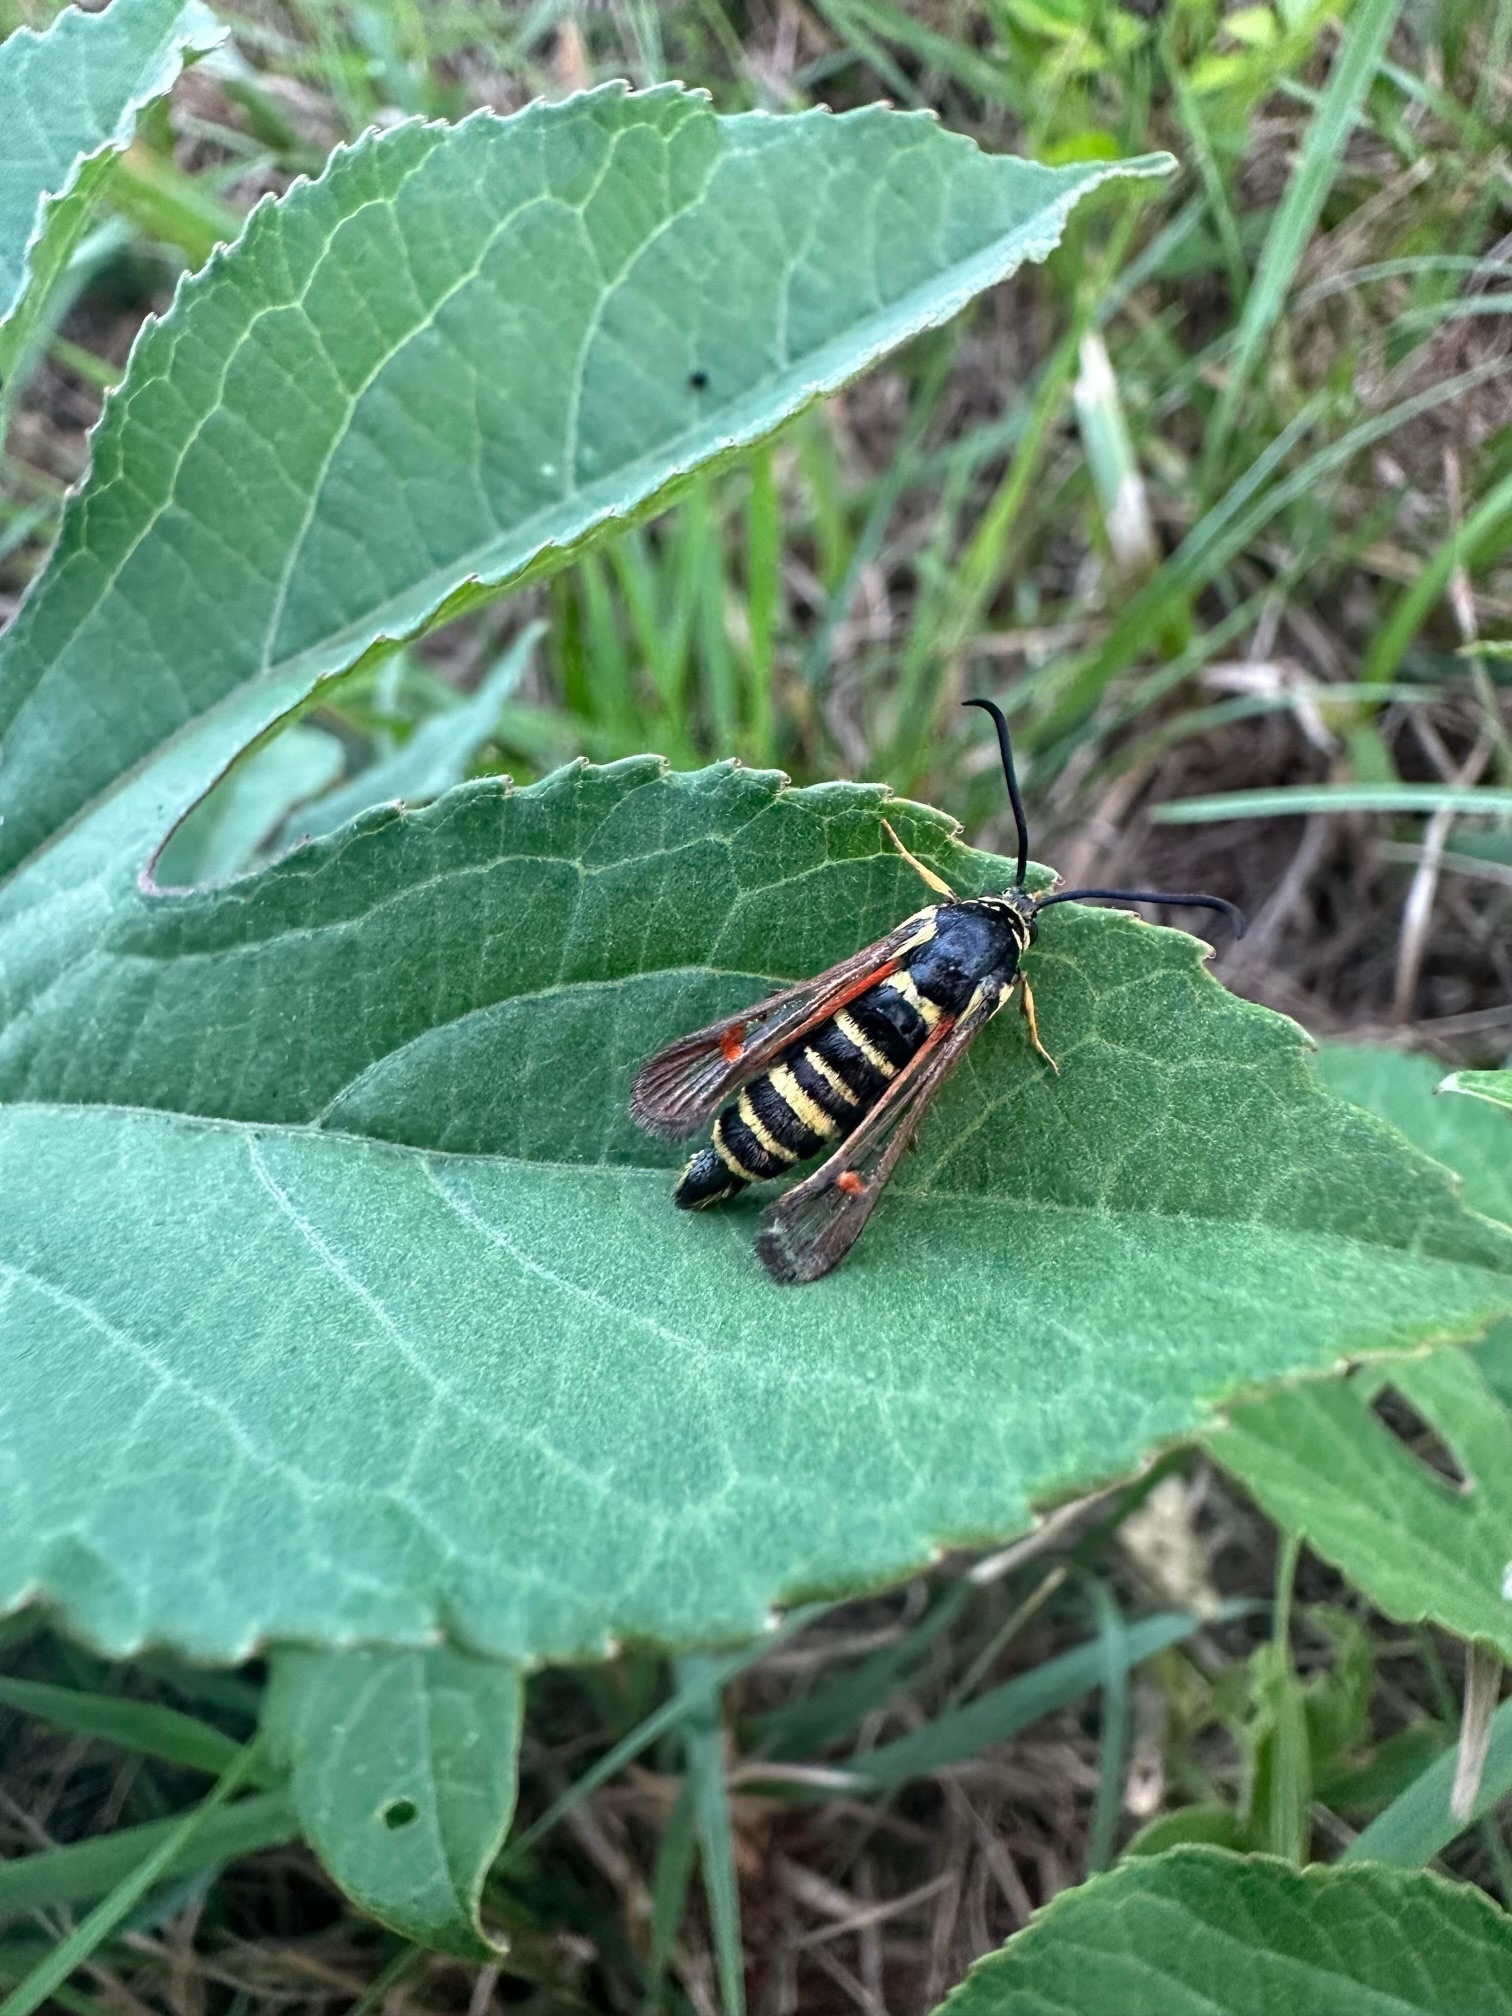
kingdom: Animalia
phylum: Arthropoda
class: Insecta
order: Lepidoptera
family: Sesiidae
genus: Synanthedon
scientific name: Synanthedon rileyana
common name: Riley's clearwing moth
